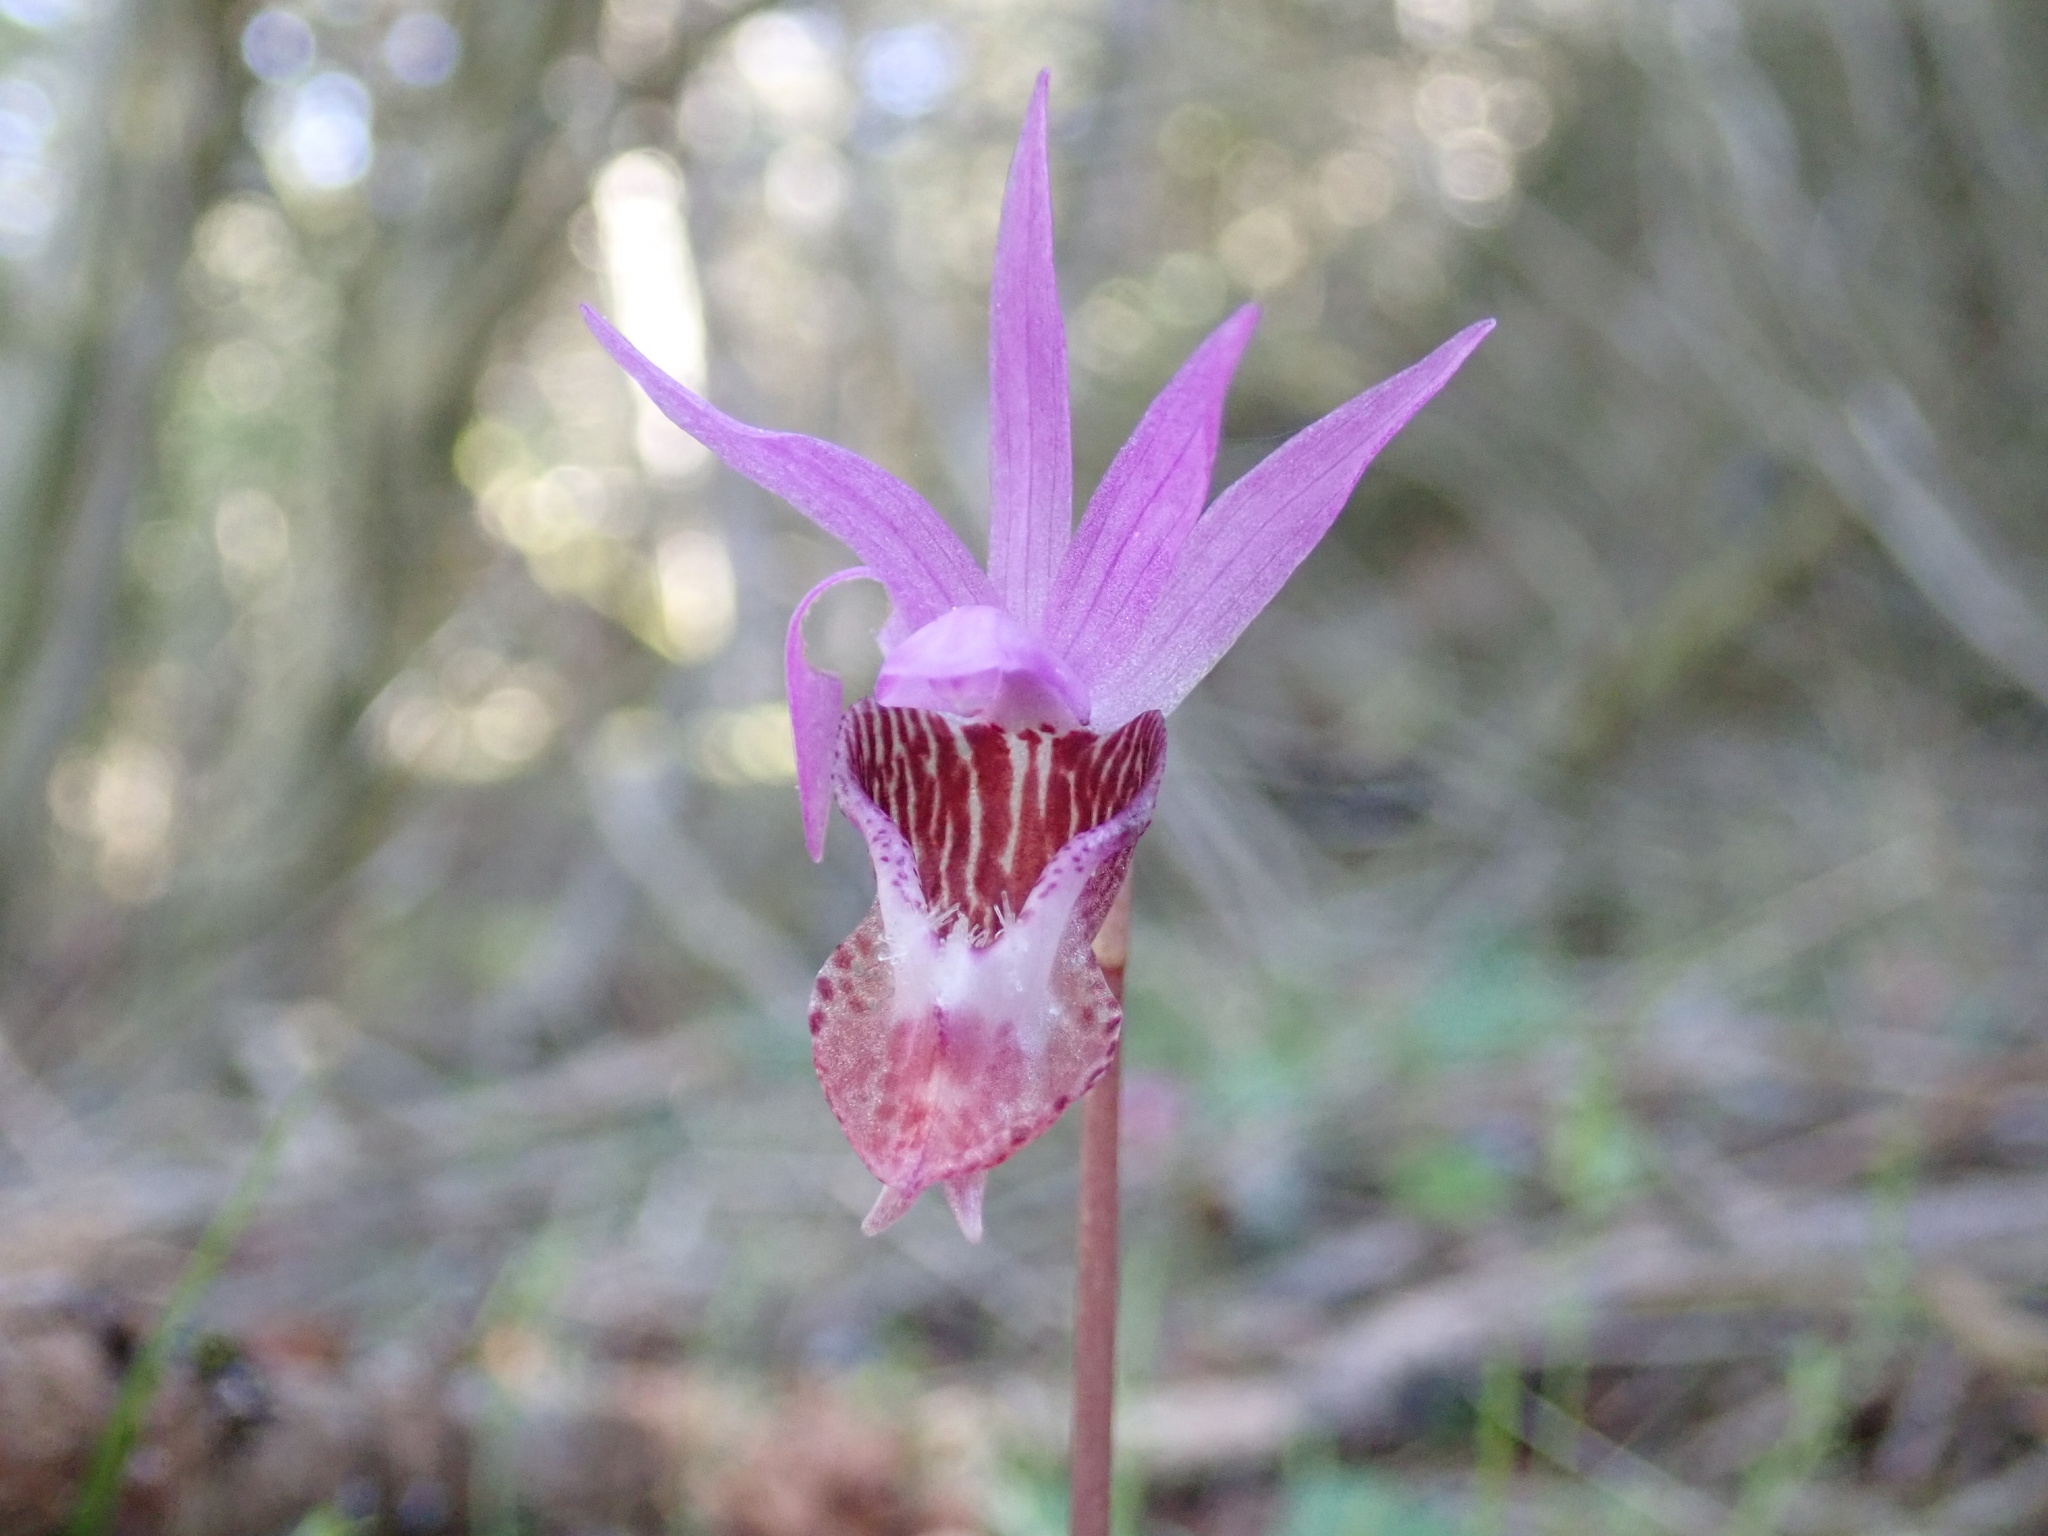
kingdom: Plantae
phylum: Tracheophyta
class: Liliopsida
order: Asparagales
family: Orchidaceae
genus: Calypso
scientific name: Calypso bulbosa
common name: Calypso
